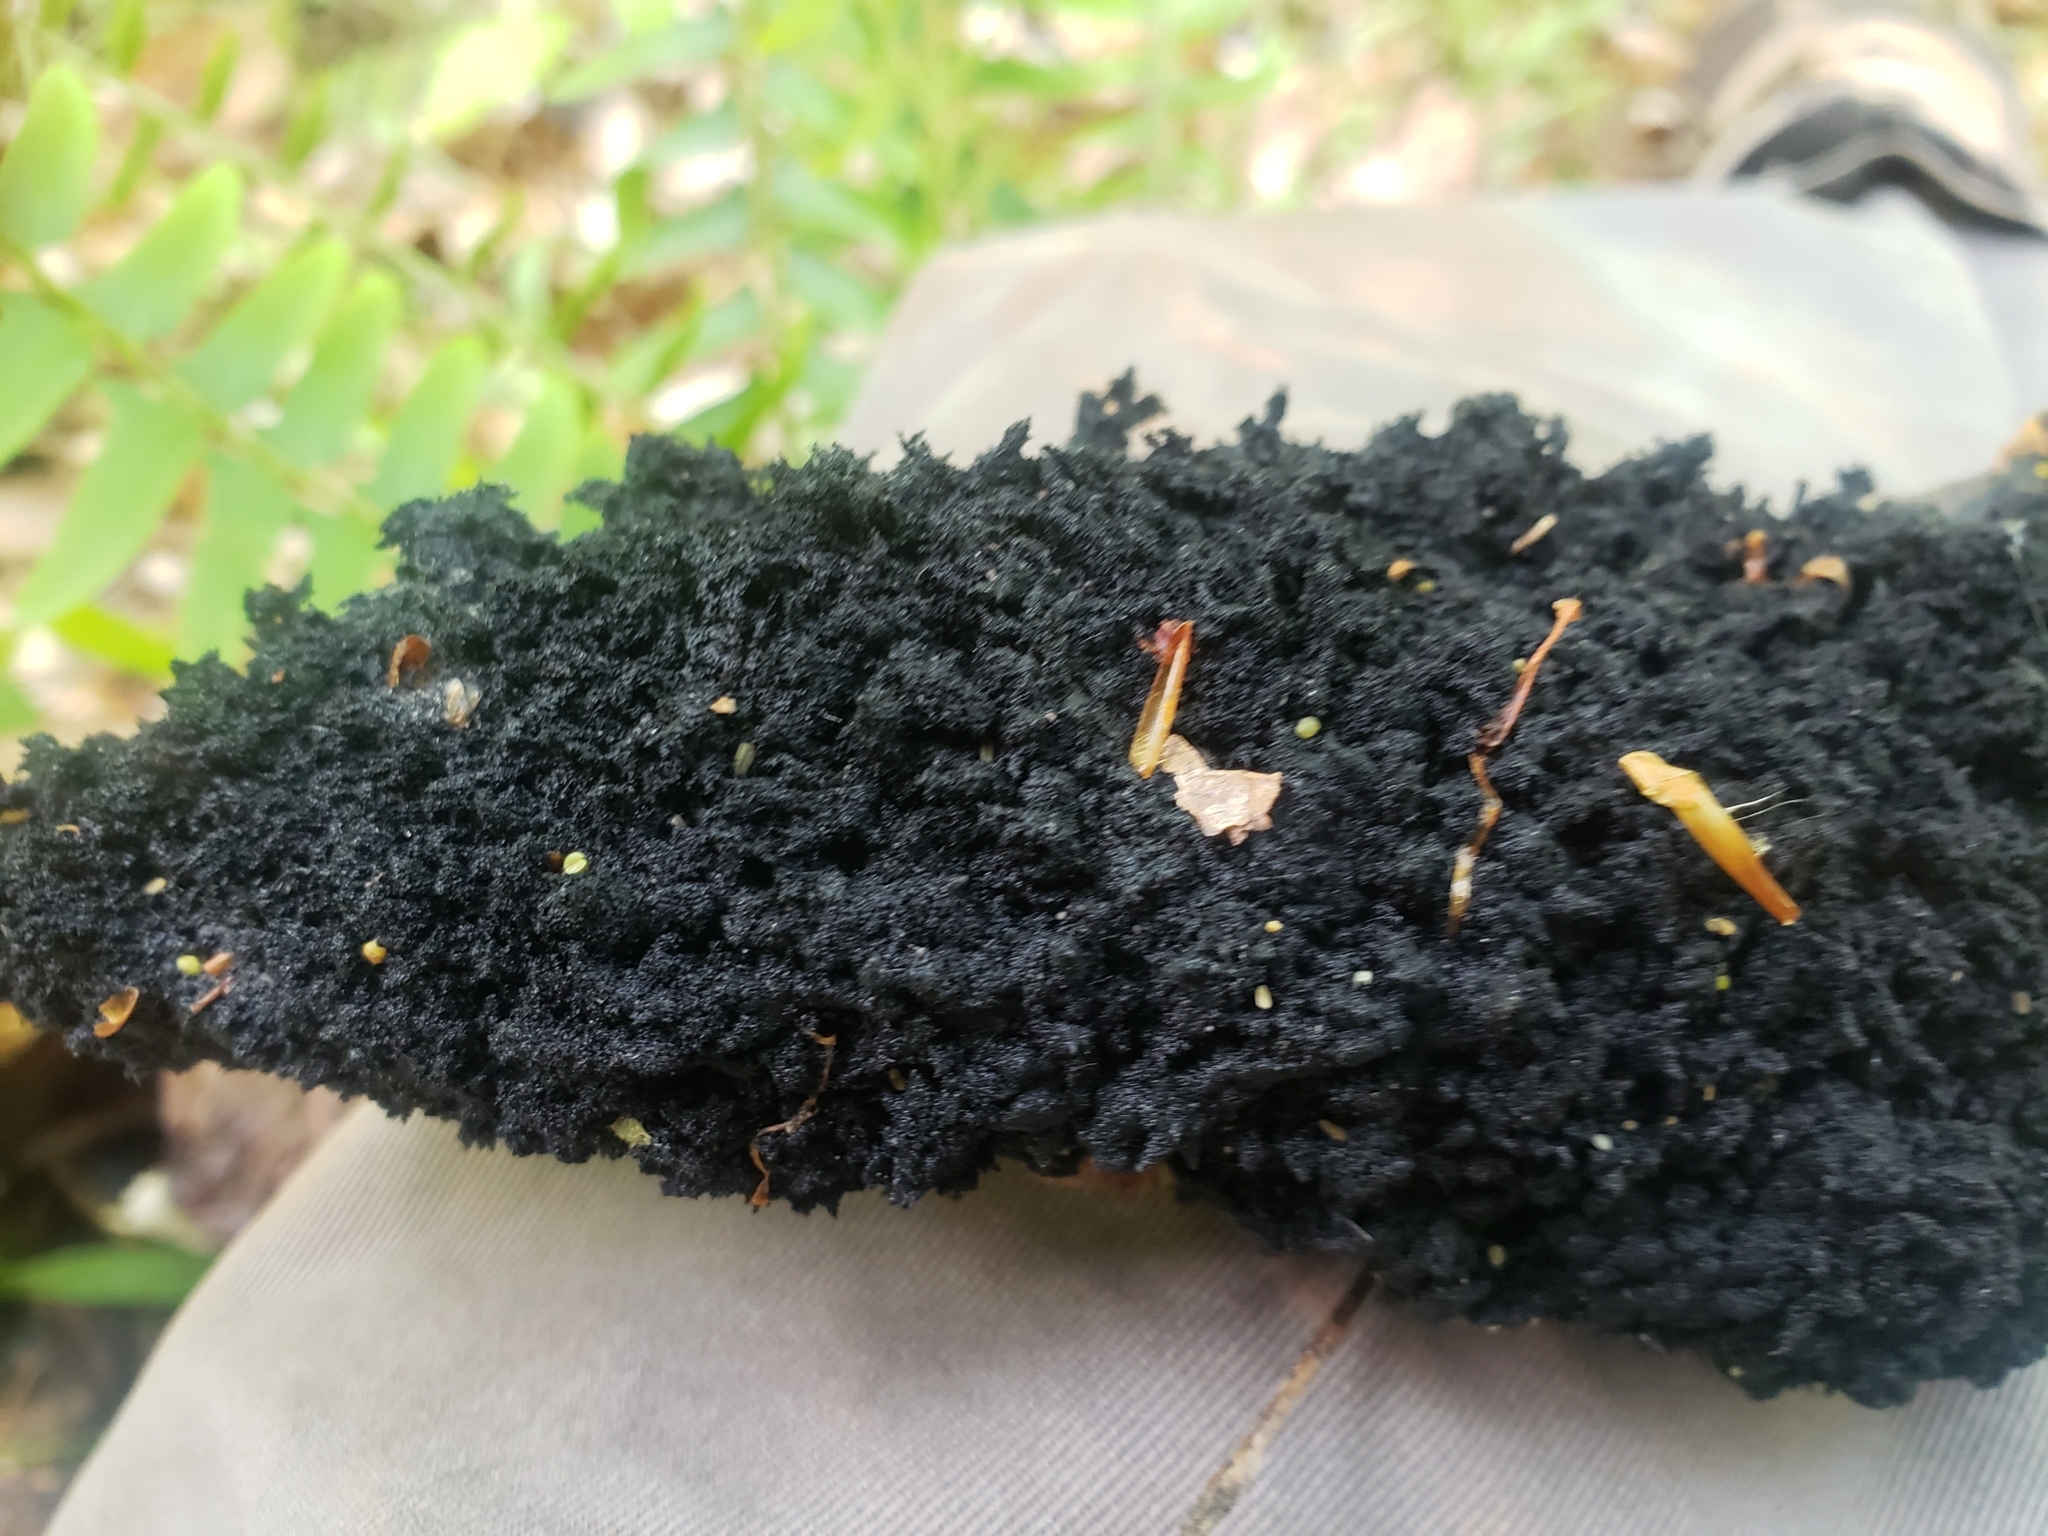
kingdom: Fungi
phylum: Ascomycota
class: Dothideomycetes
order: Capnodiales
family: Capnodiaceae
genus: Scorias
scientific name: Scorias spongiosa
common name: Black sooty mold
